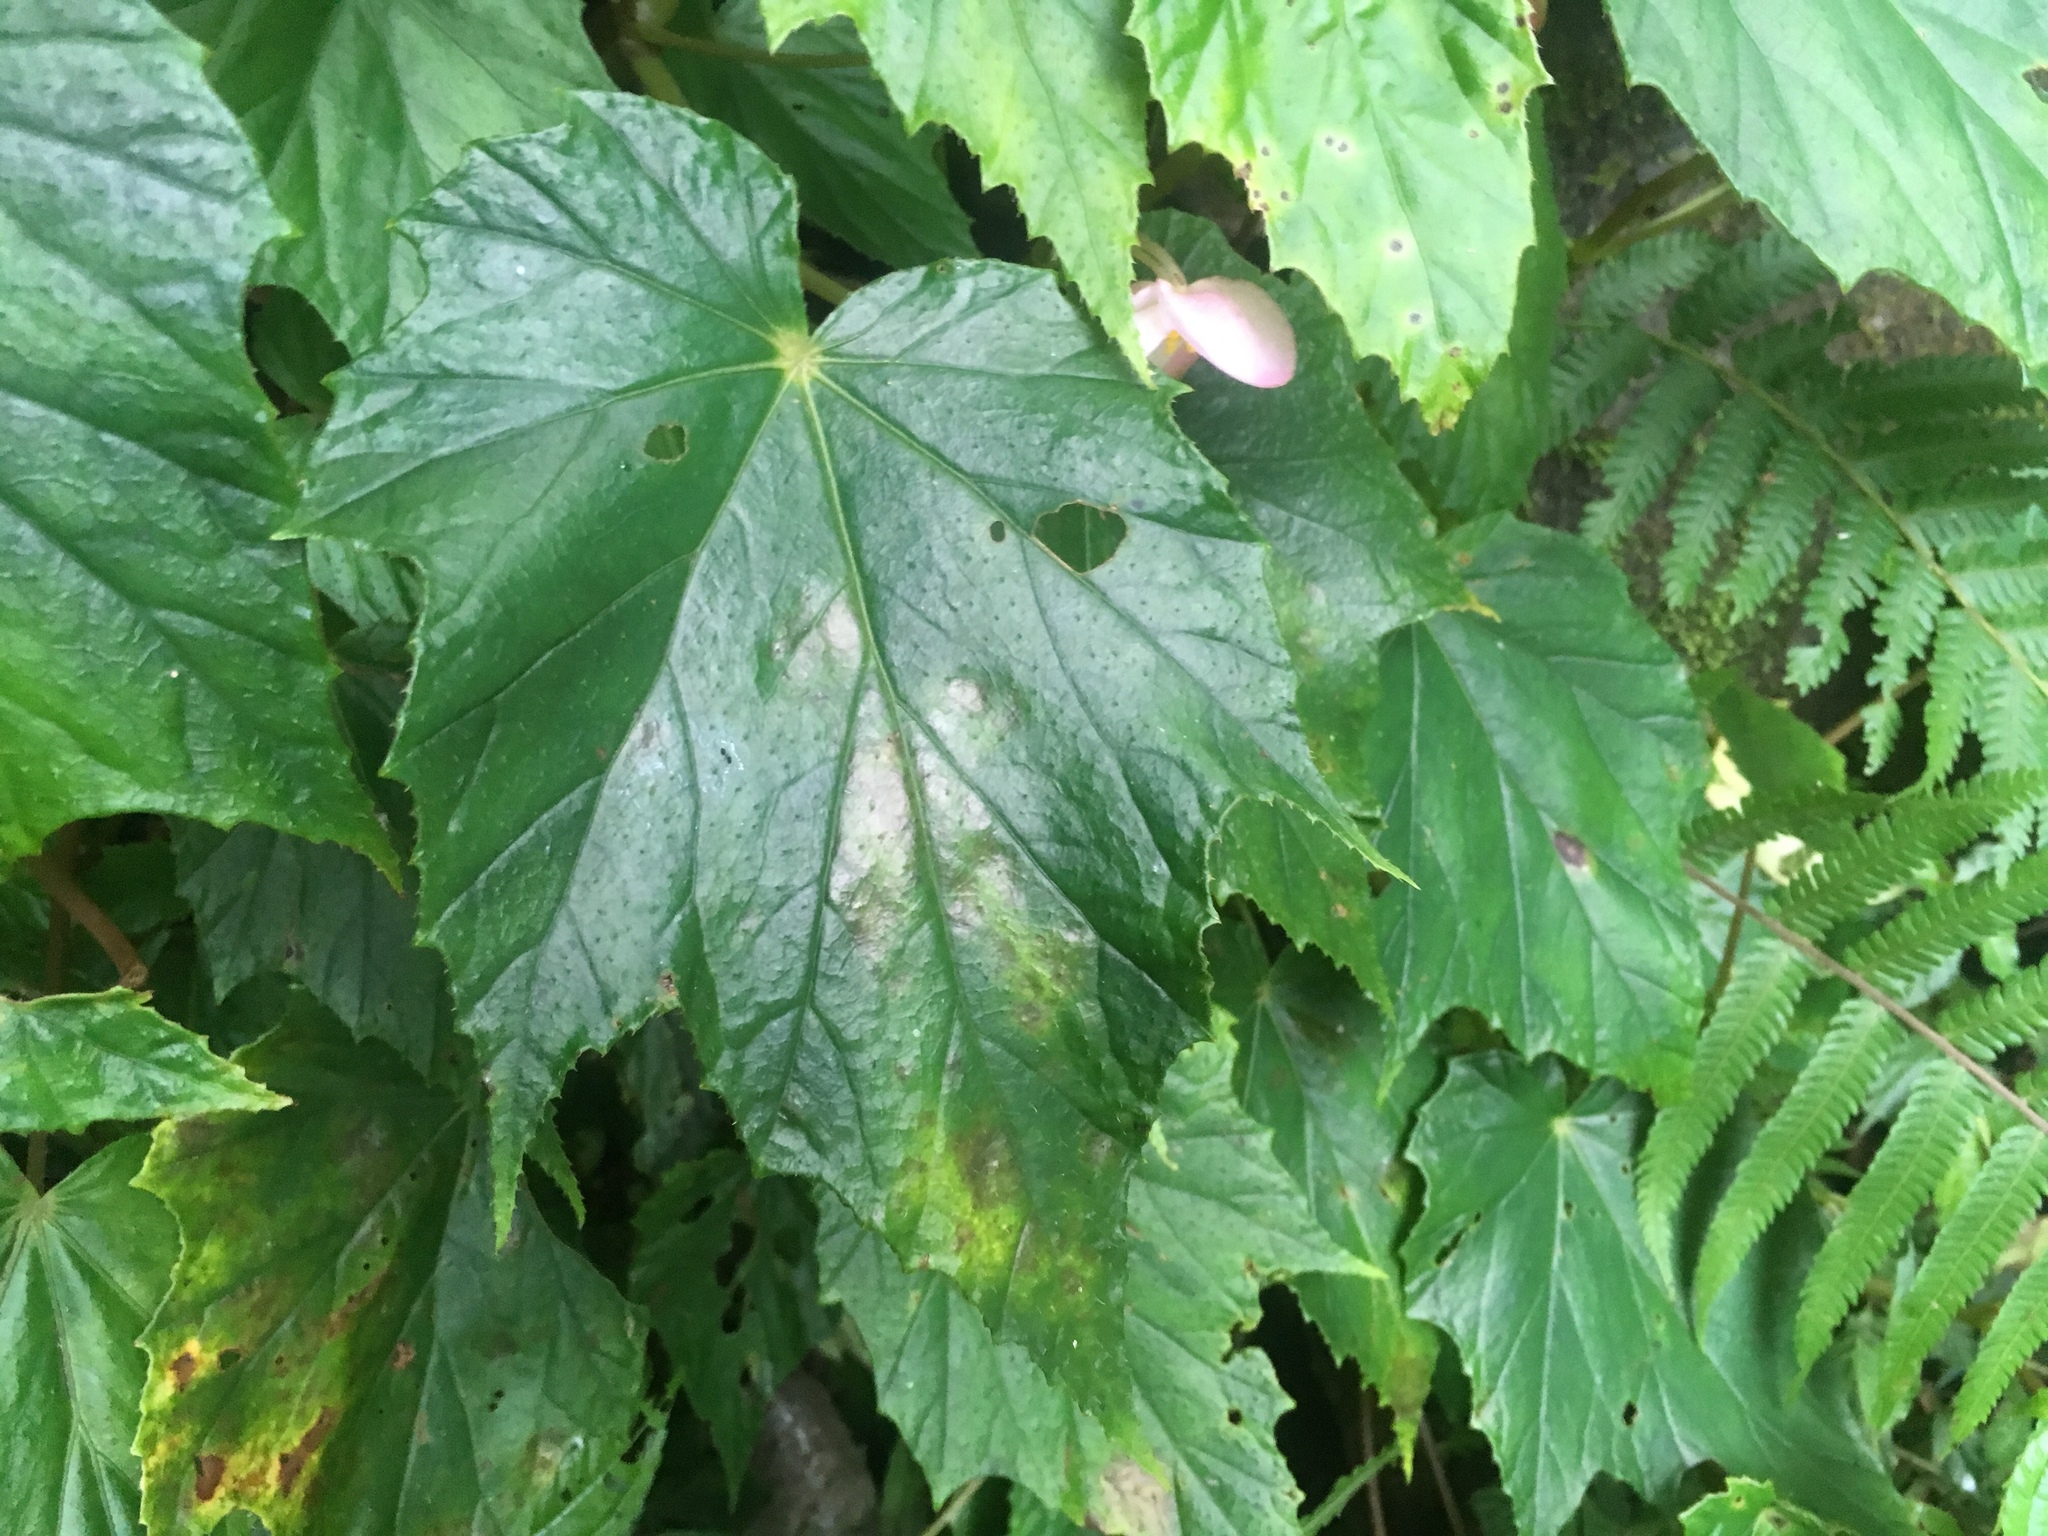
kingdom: Plantae
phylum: Tracheophyta
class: Magnoliopsida
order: Cucurbitales
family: Begoniaceae
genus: Begonia
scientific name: Begonia formosana
